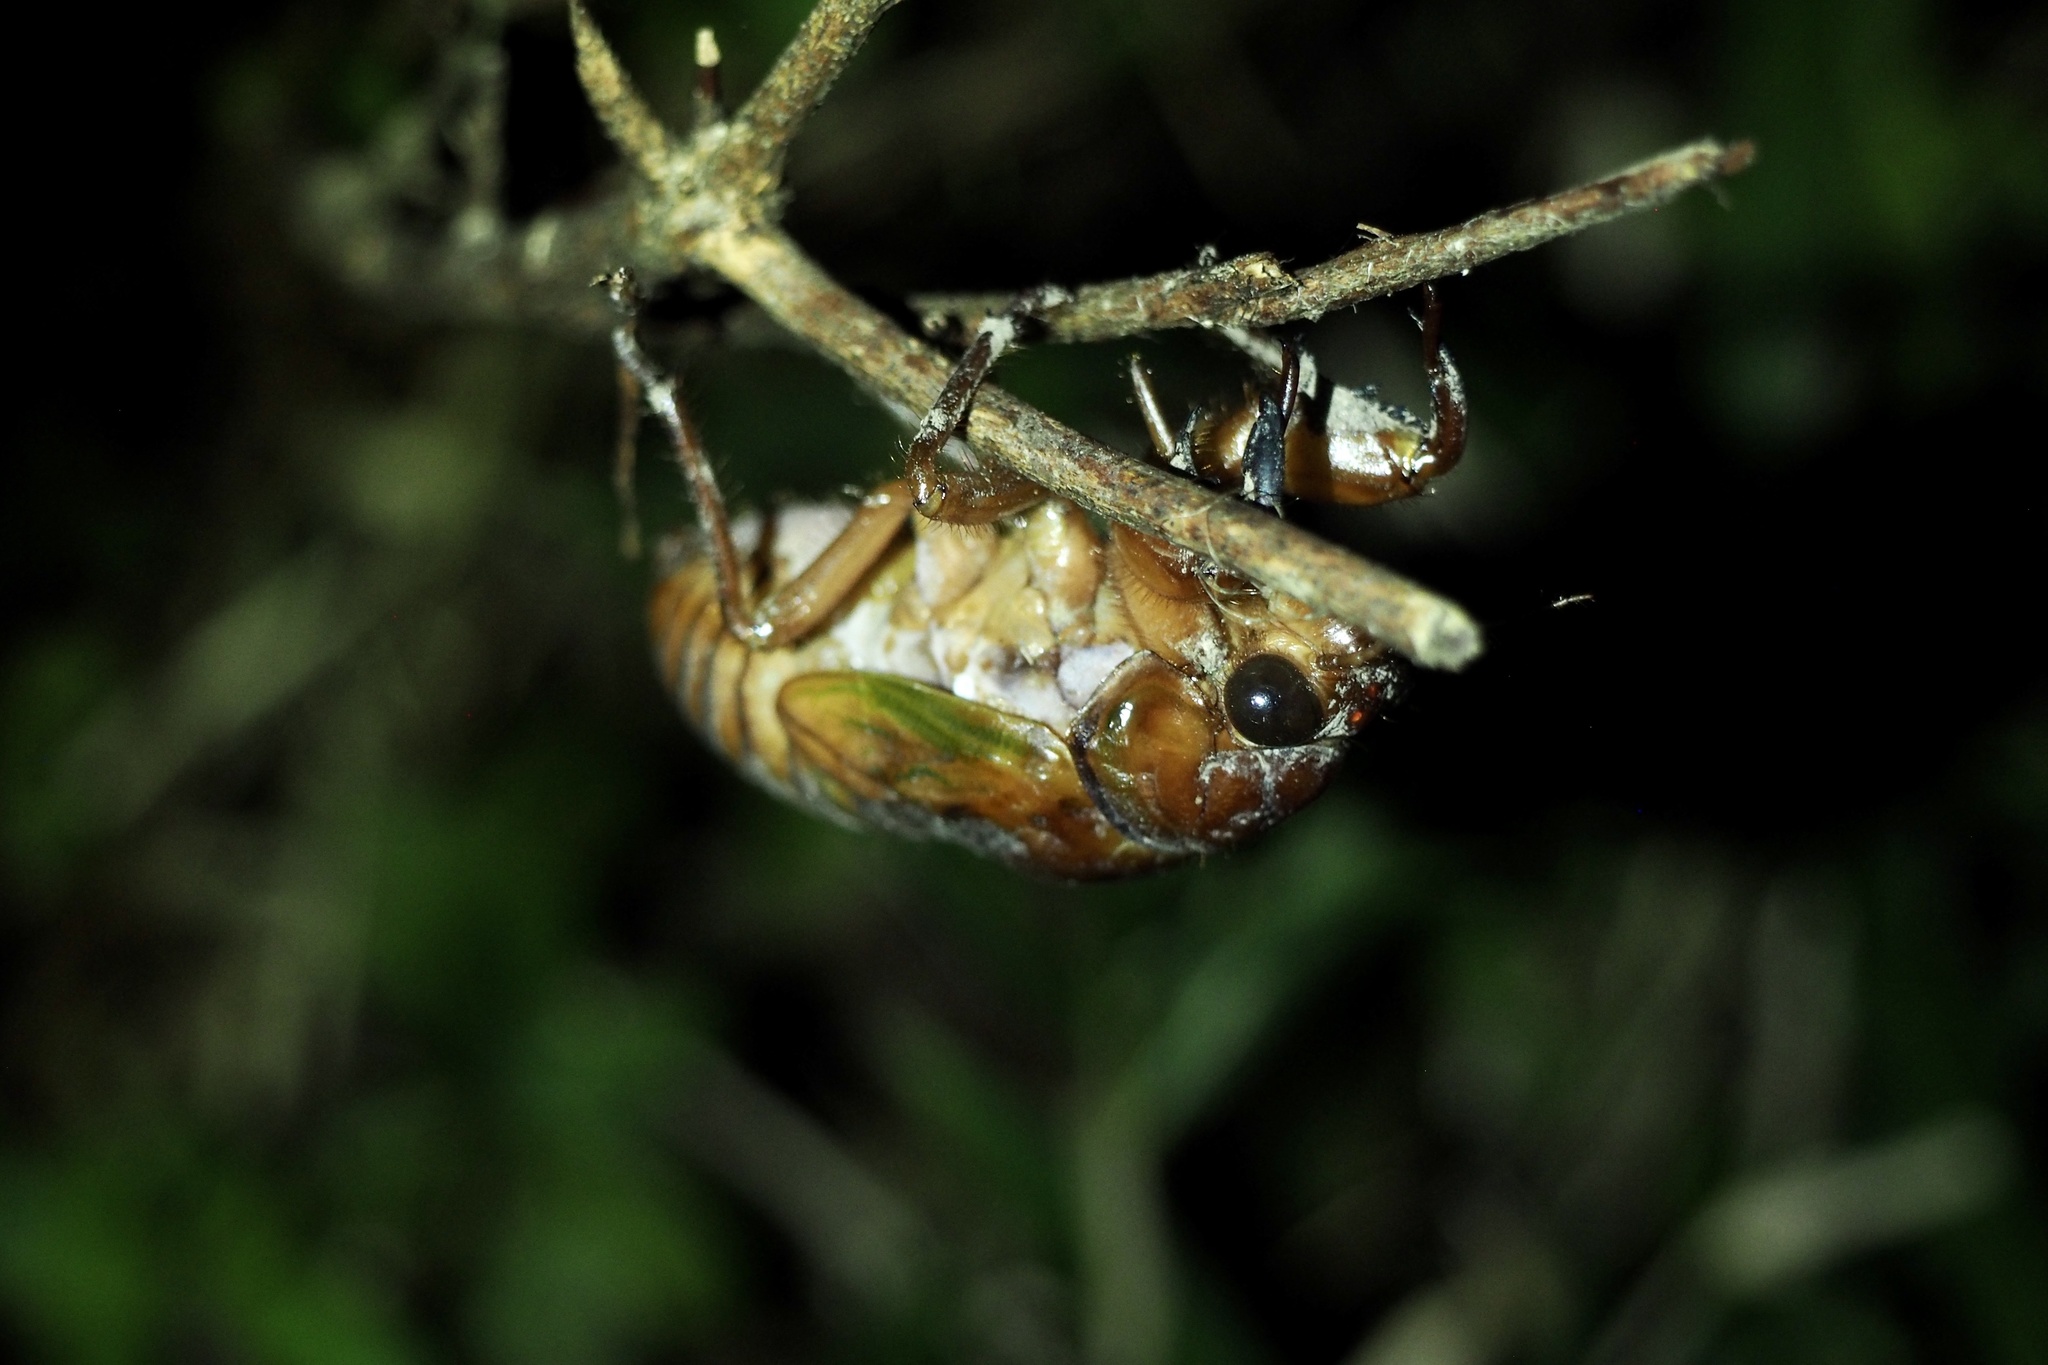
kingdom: Animalia
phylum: Arthropoda
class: Insecta
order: Hemiptera
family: Cicadidae
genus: Graptopsaltria
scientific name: Graptopsaltria nigrofuscata
